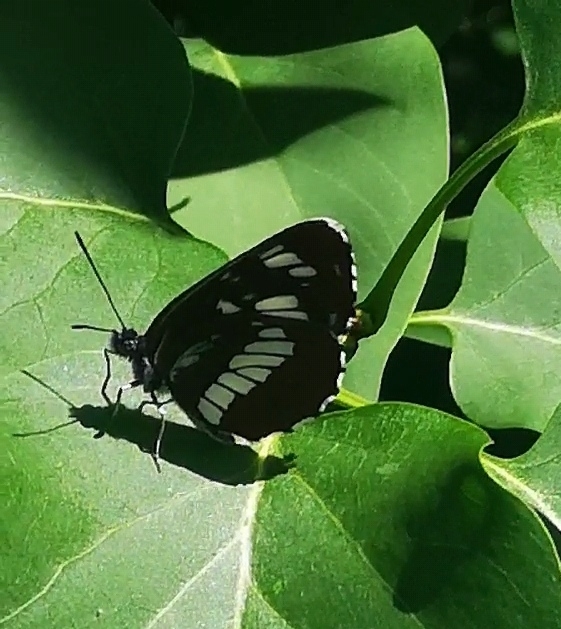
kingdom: Animalia
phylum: Arthropoda
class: Insecta
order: Lepidoptera
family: Nymphalidae
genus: Neptis
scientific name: Neptis rivularis
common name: Hungarian glider
